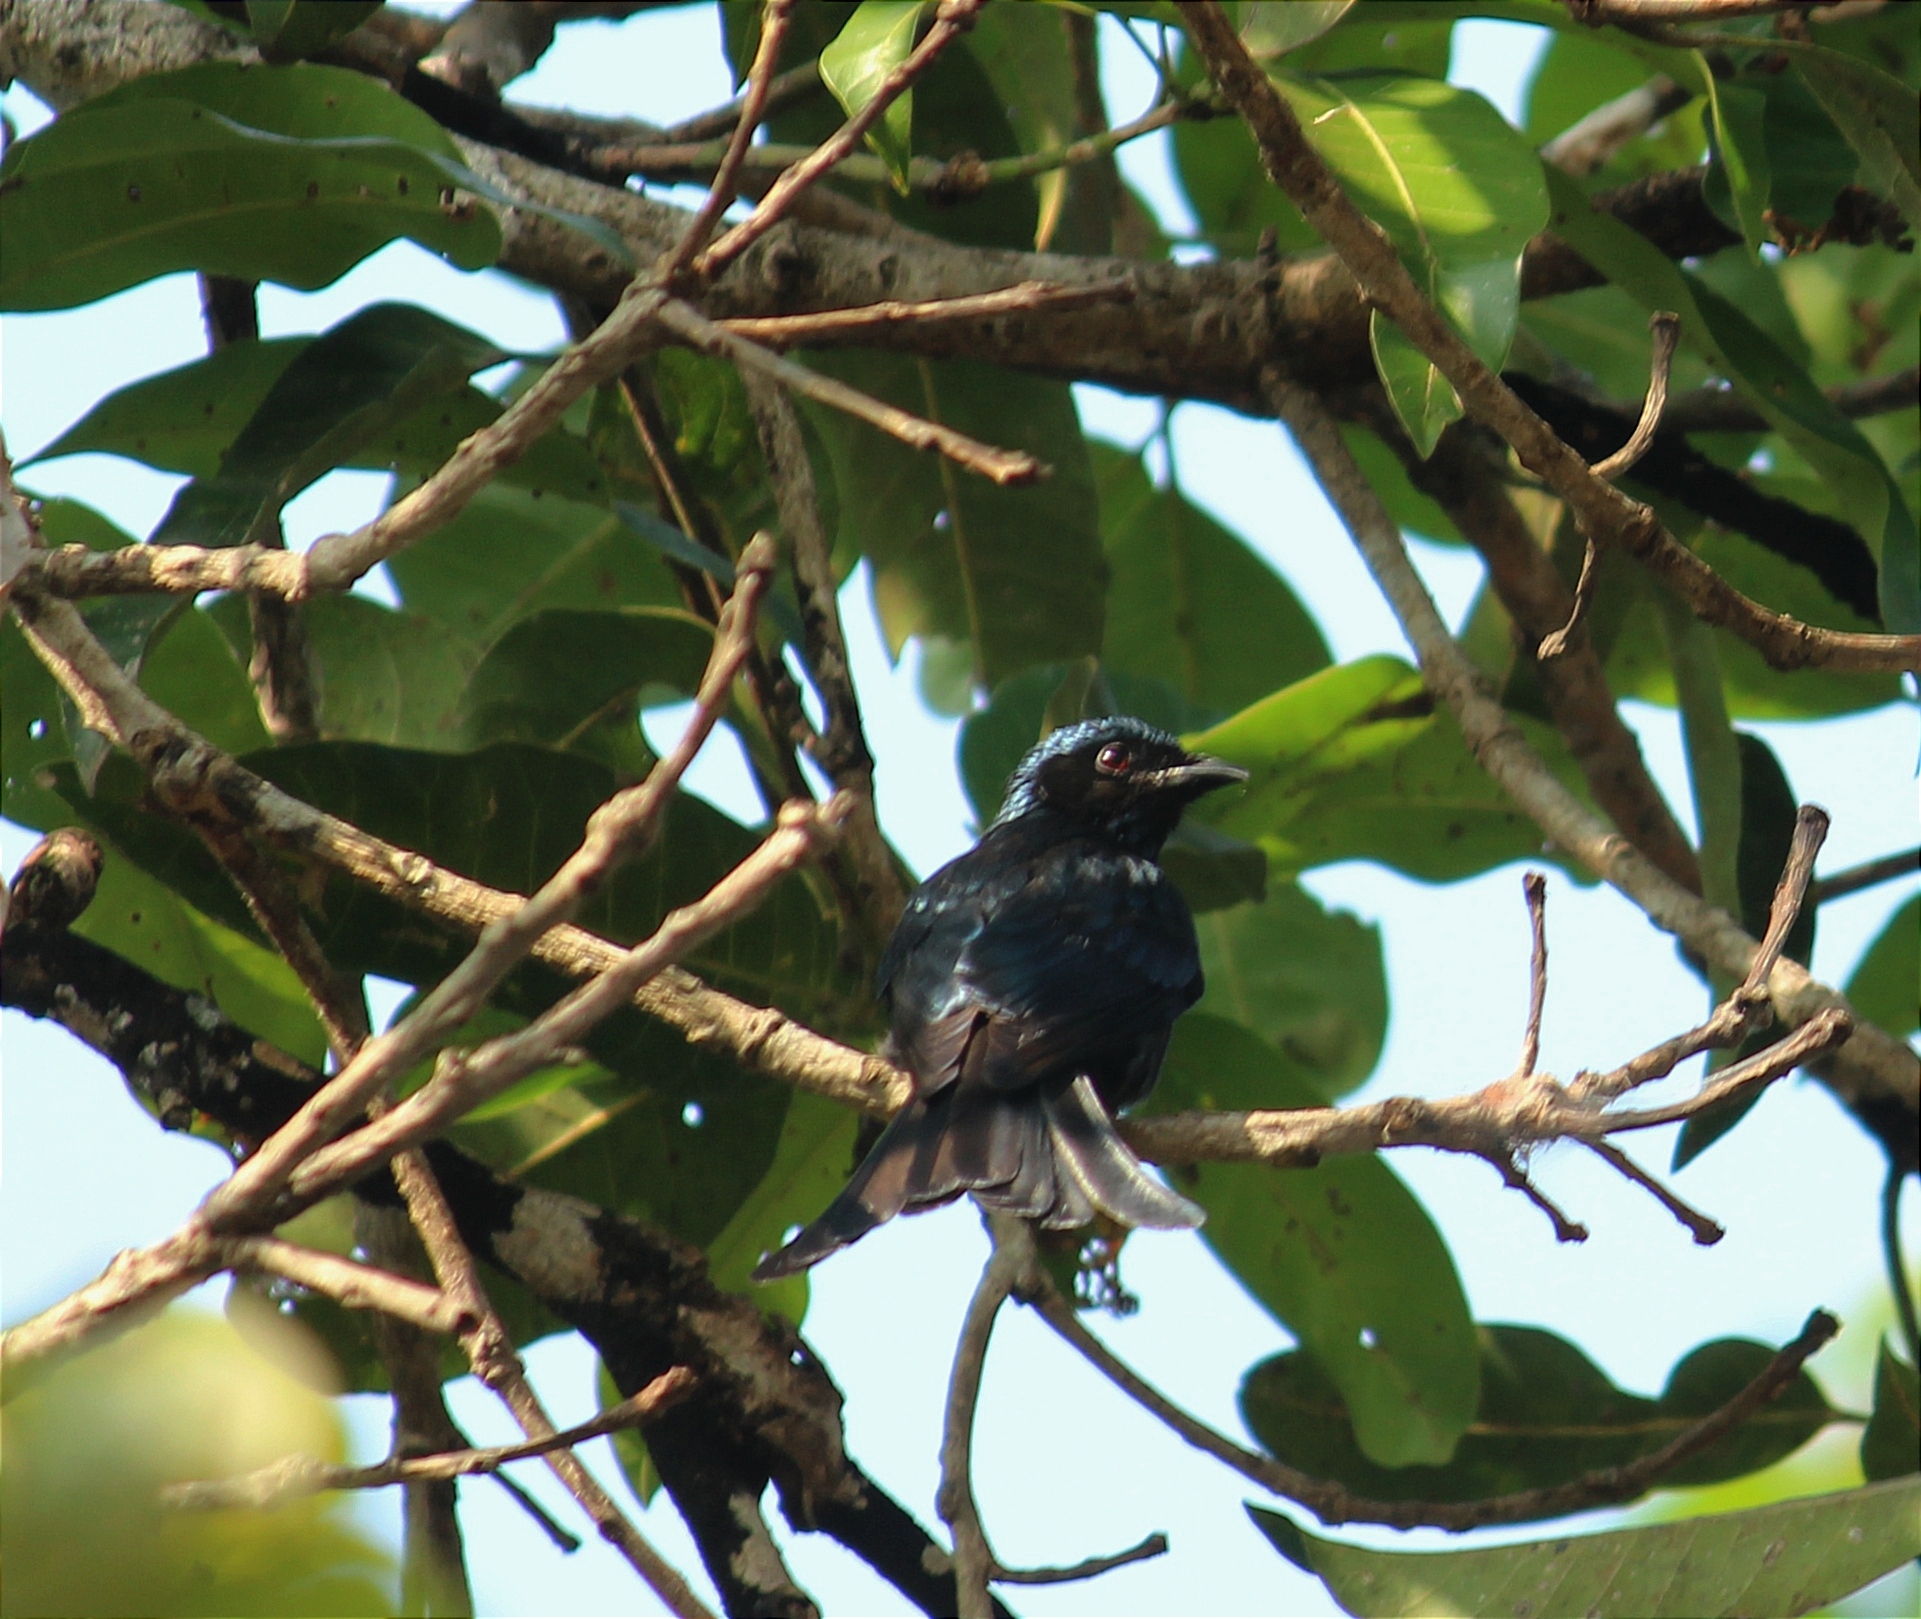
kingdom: Animalia
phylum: Chordata
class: Aves
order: Passeriformes
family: Dicruridae
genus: Dicrurus
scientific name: Dicrurus aeneus
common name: Bronzed drongo
